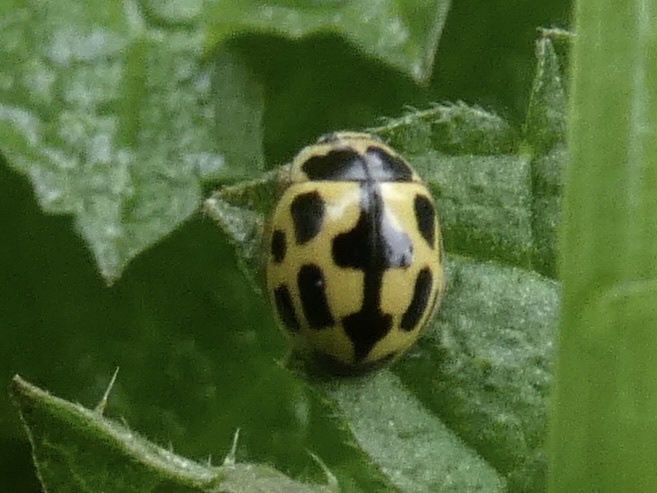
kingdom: Animalia
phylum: Arthropoda
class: Insecta
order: Coleoptera
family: Coccinellidae
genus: Propylaea
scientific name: Propylaea quatuordecimpunctata
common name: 14-spotted ladybird beetle
